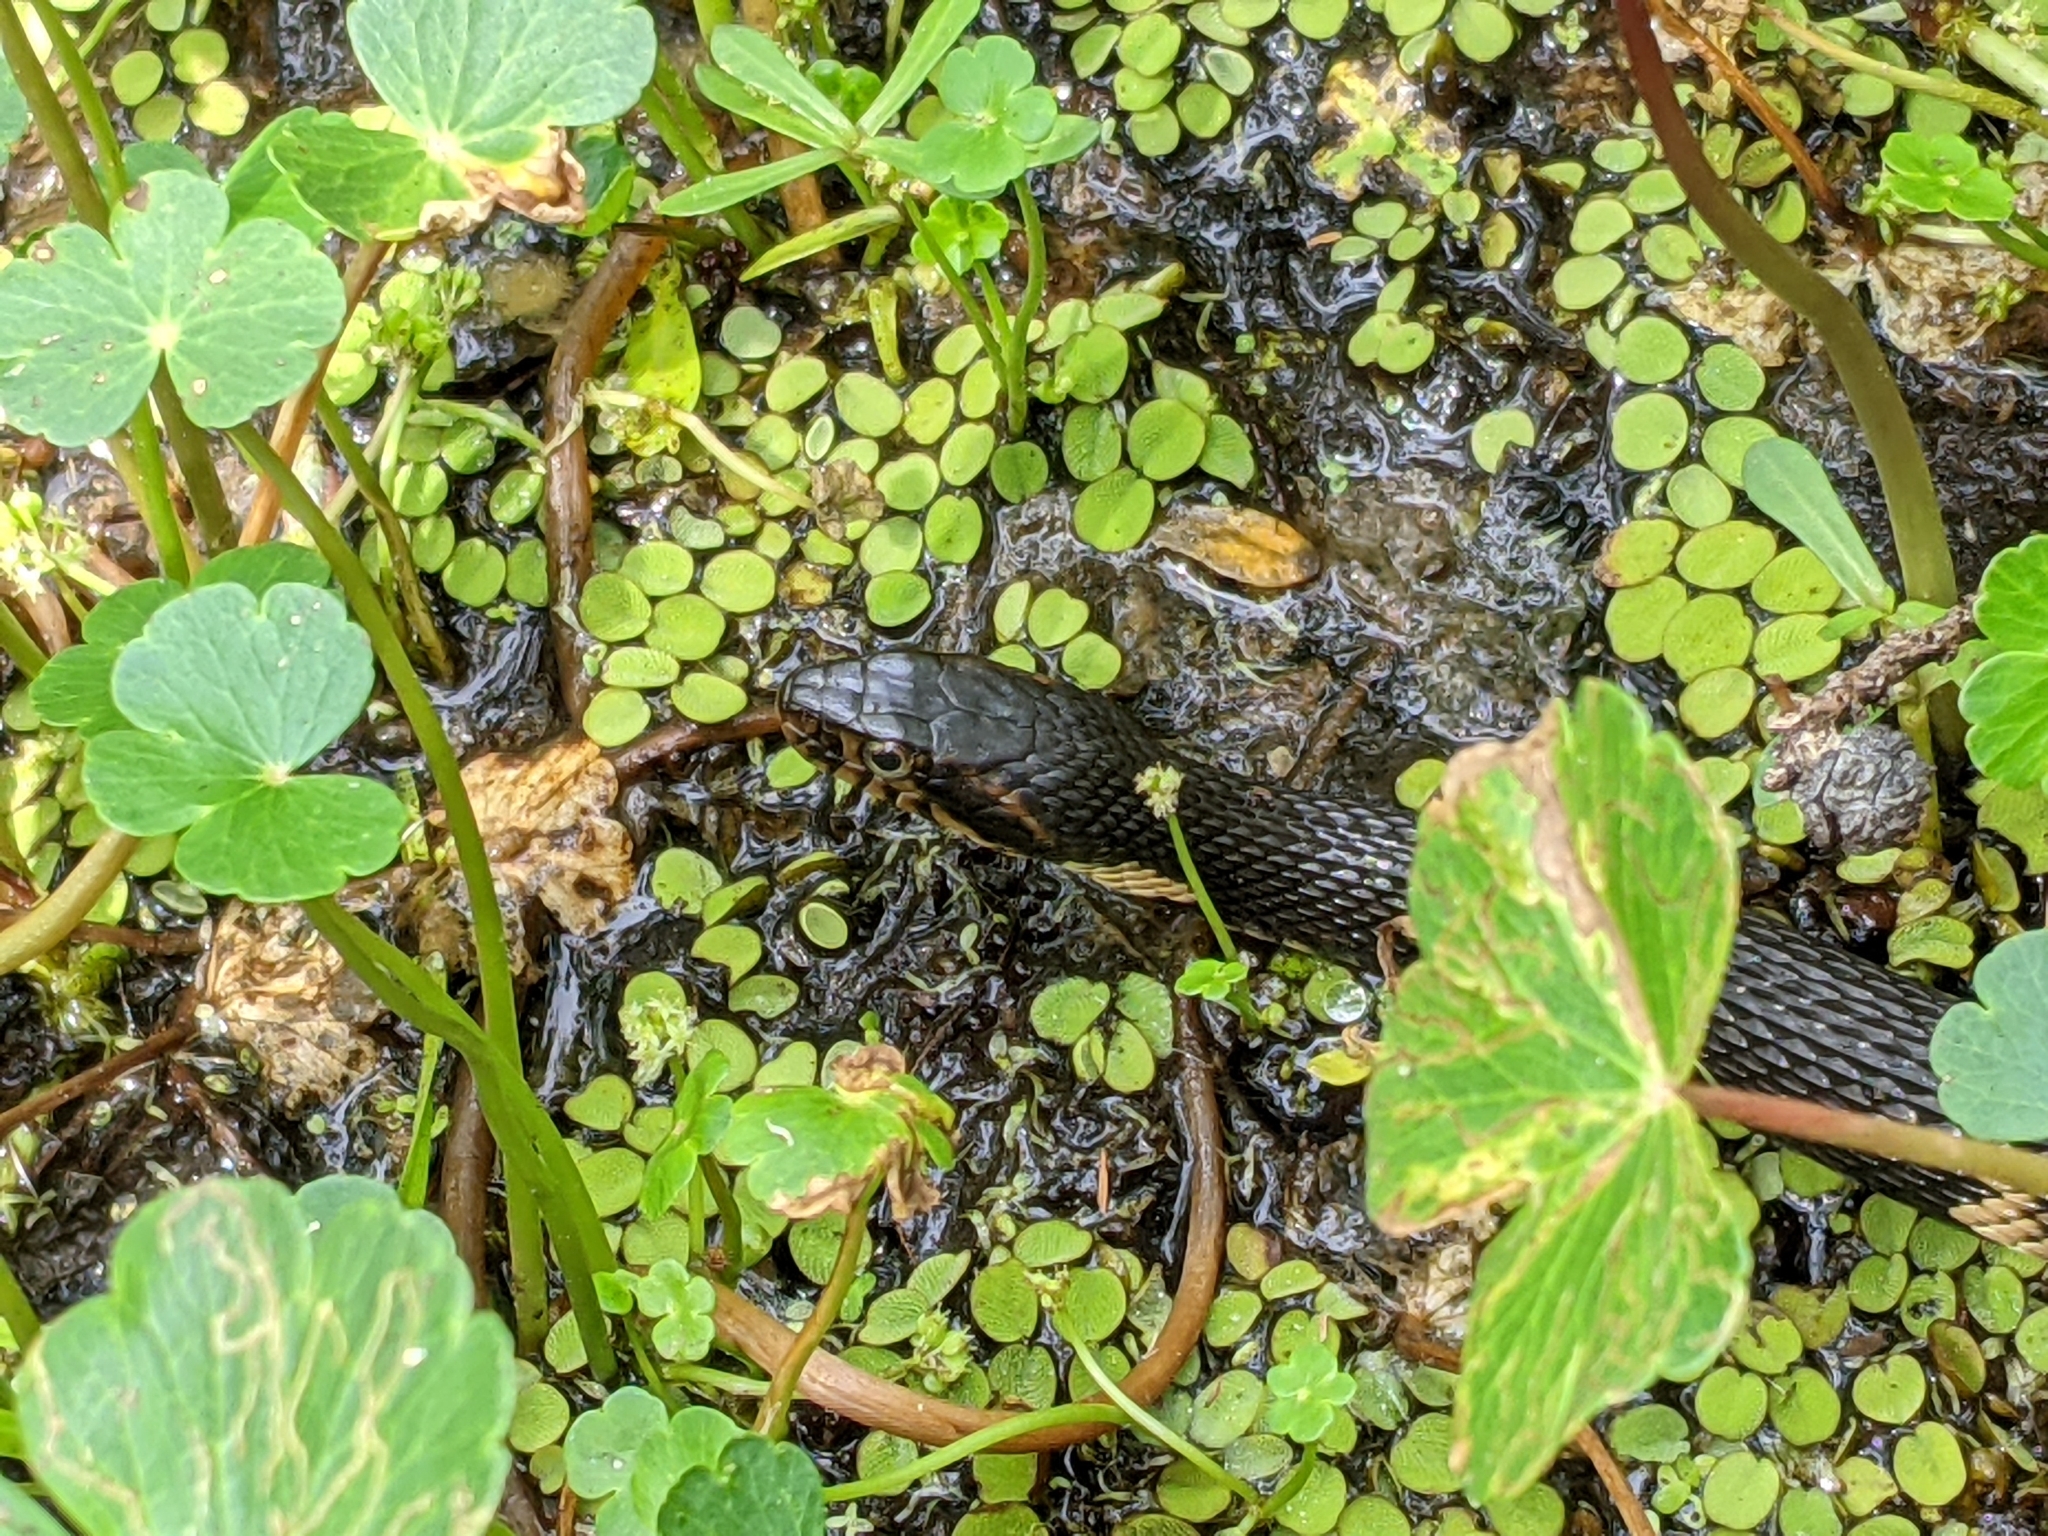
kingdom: Animalia
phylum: Chordata
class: Squamata
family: Colubridae
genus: Nerodia
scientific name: Nerodia fasciata
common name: Southern water snake
